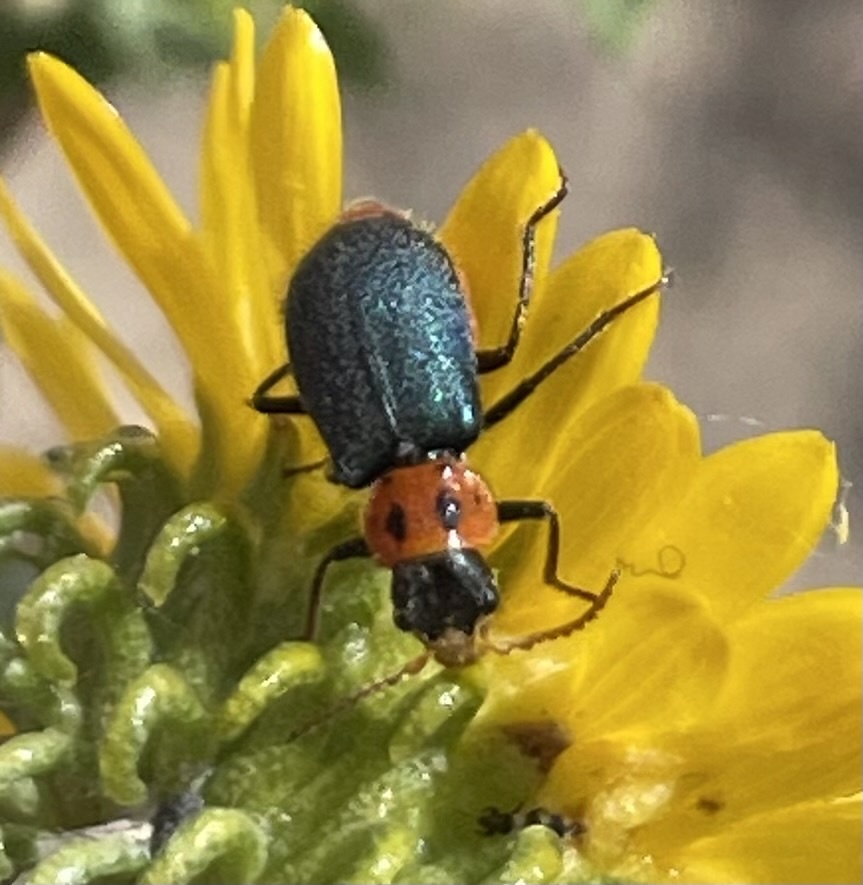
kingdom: Animalia
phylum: Arthropoda
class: Insecta
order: Coleoptera
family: Melyridae
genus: Collops
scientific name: Collops bipunctatus
